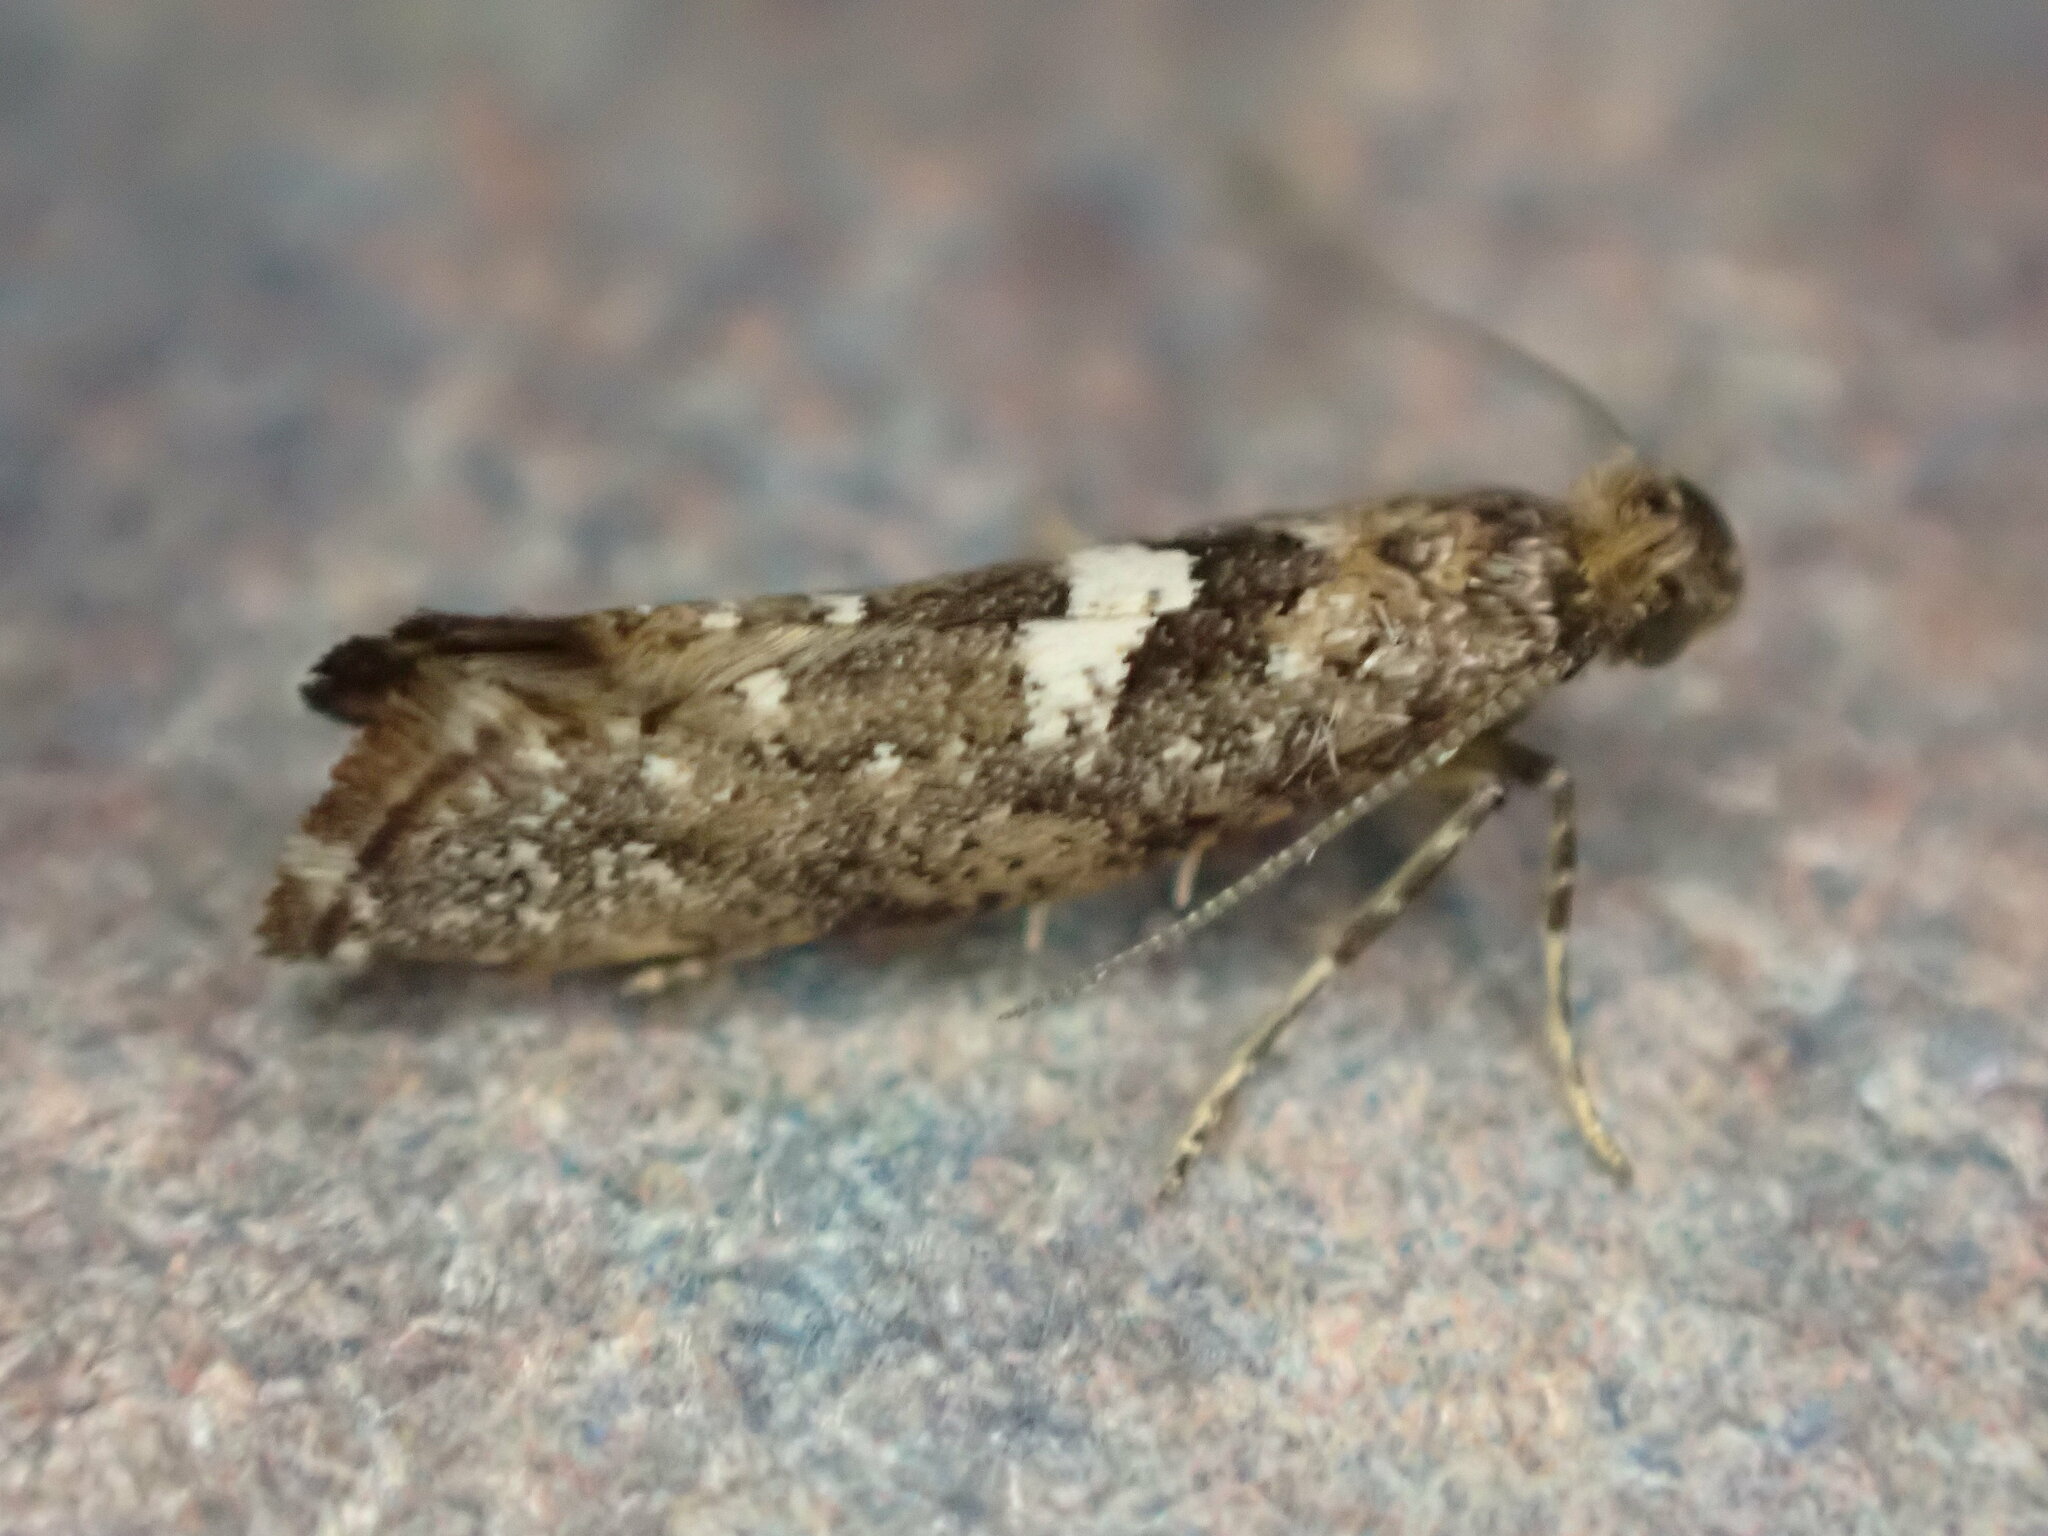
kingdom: Animalia
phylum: Arthropoda
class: Insecta
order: Lepidoptera
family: Glyphipterigidae
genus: Acrolepia
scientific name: Acrolepia assectella
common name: Onion leaf miner
